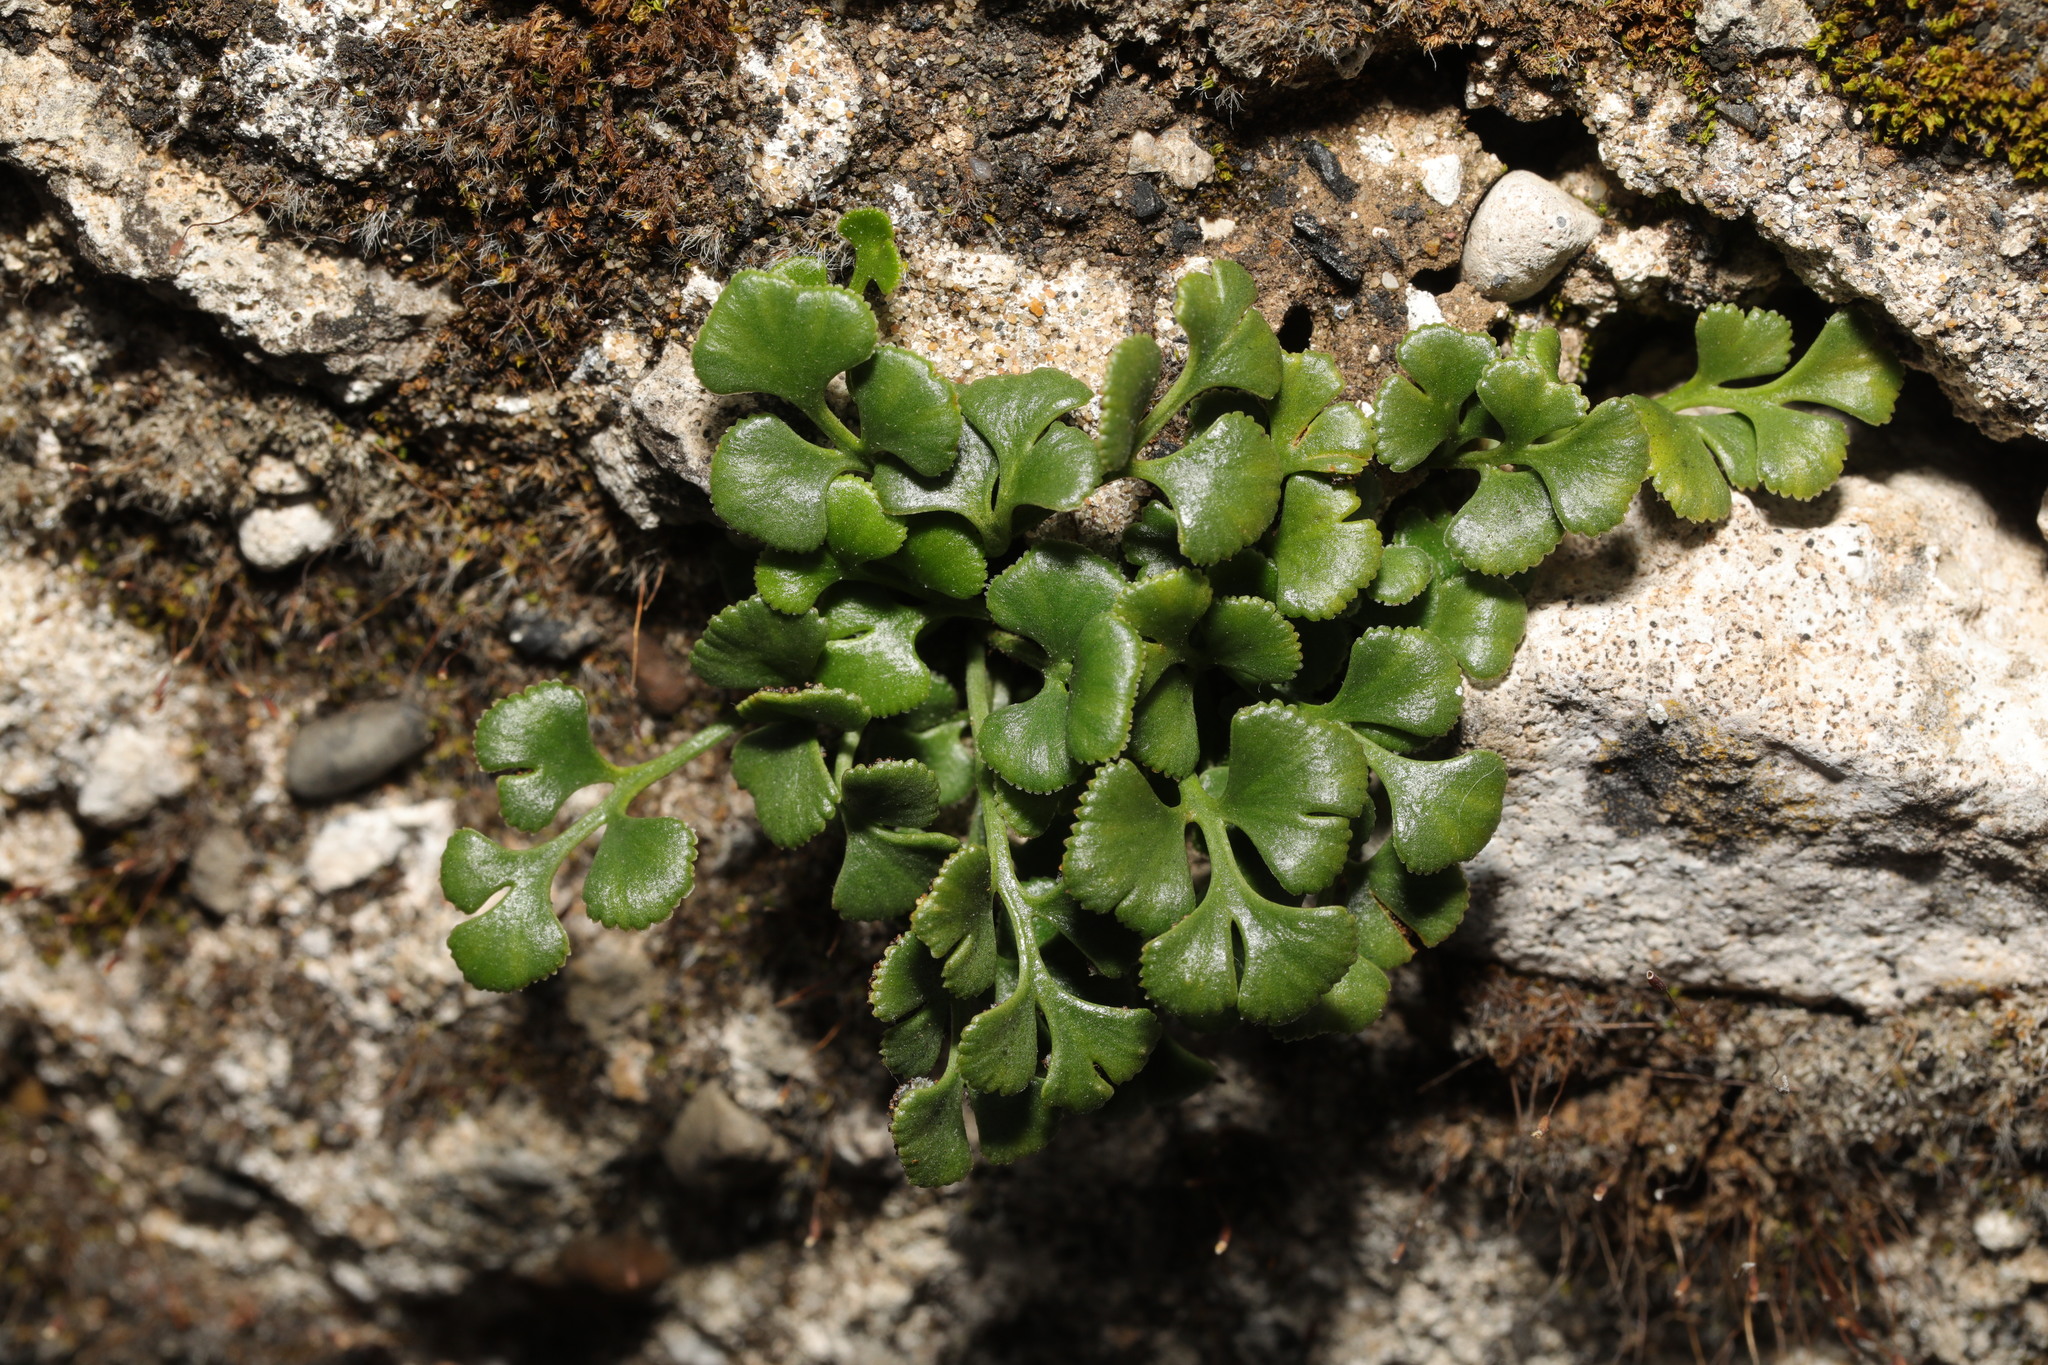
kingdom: Plantae
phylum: Tracheophyta
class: Polypodiopsida
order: Polypodiales
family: Aspleniaceae
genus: Asplenium
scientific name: Asplenium ruta-muraria
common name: Wall-rue
